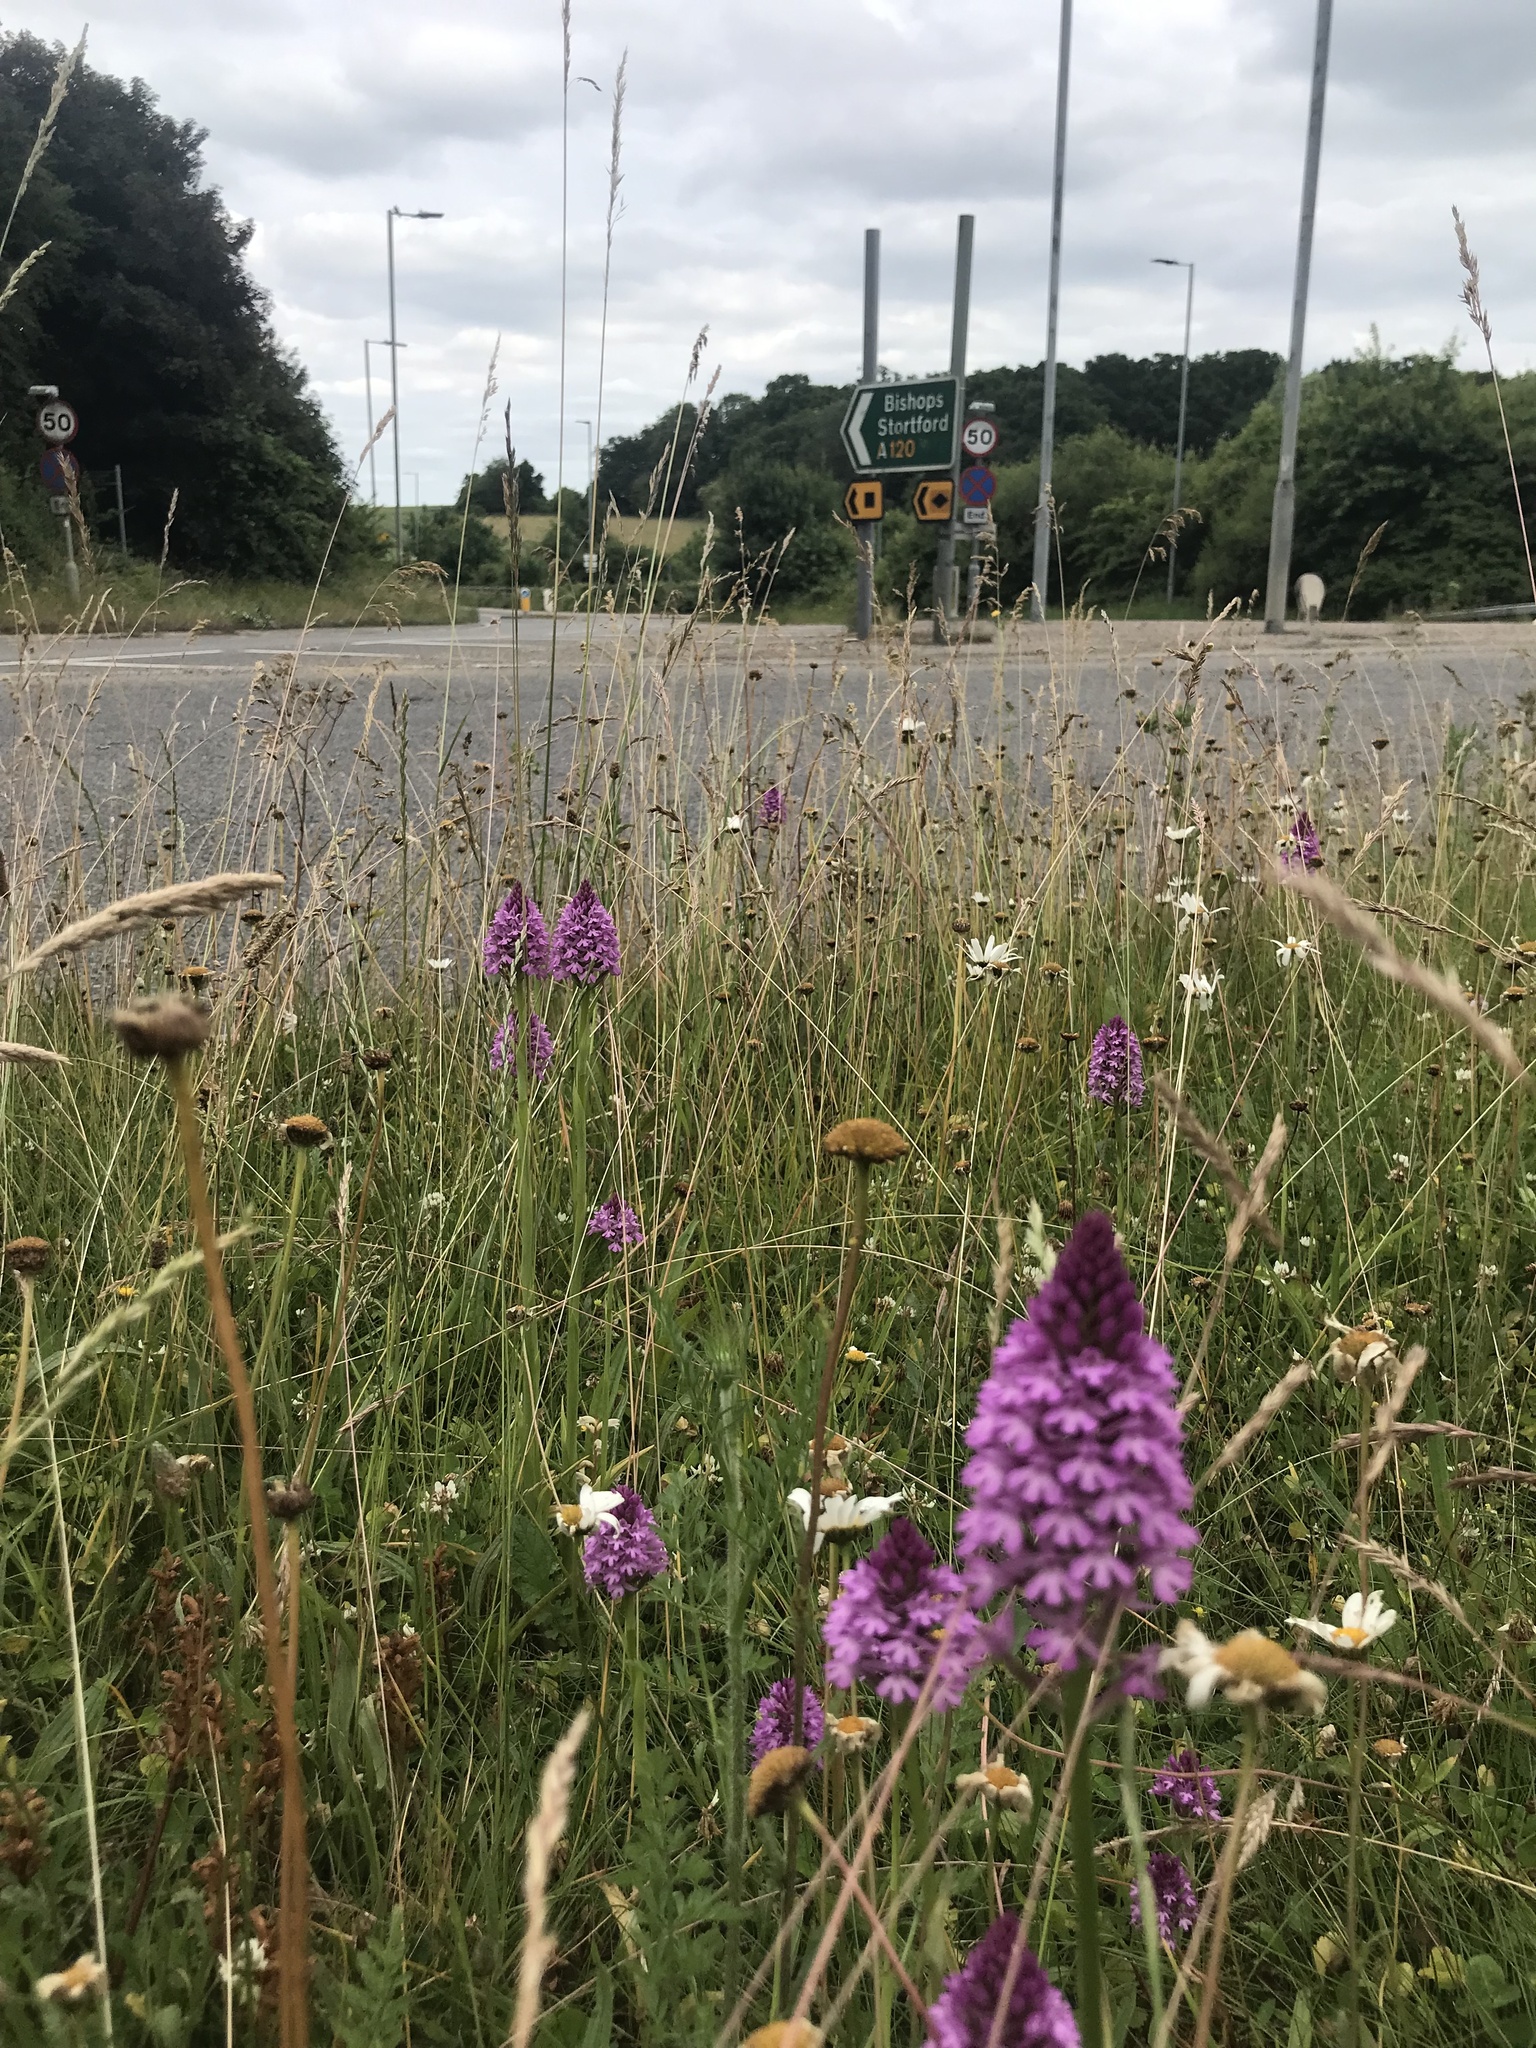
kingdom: Plantae
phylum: Tracheophyta
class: Liliopsida
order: Asparagales
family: Orchidaceae
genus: Anacamptis
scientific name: Anacamptis pyramidalis
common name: Pyramidal orchid
